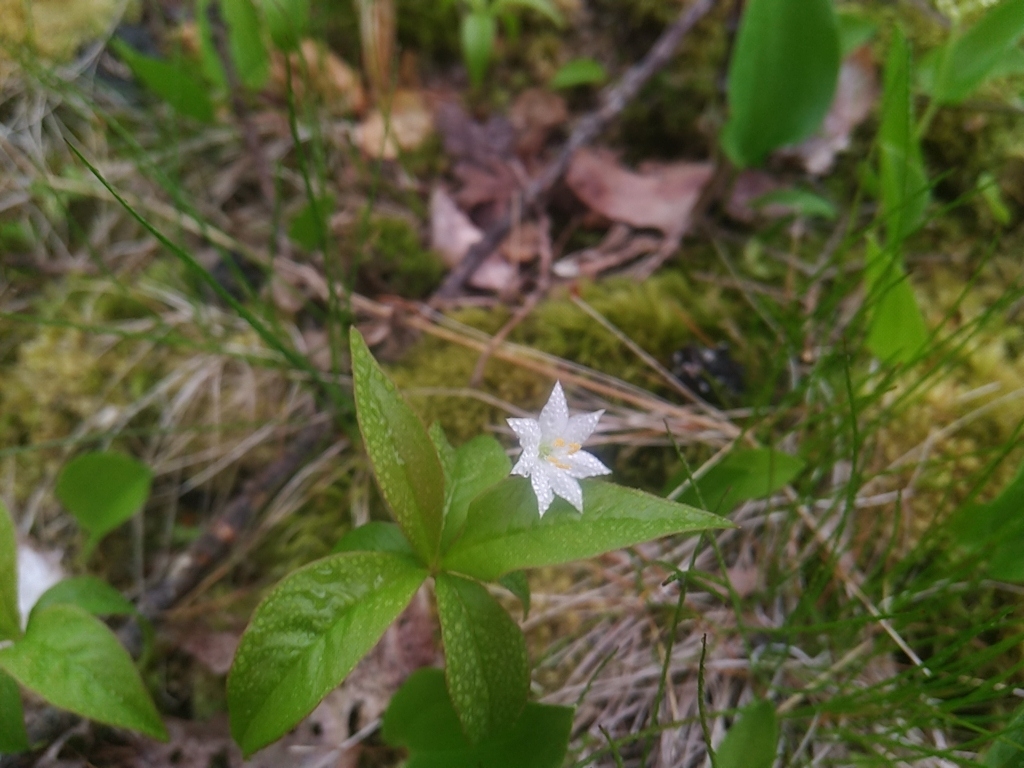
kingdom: Plantae
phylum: Tracheophyta
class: Magnoliopsida
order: Ericales
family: Primulaceae
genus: Lysimachia
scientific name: Lysimachia borealis
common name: American starflower
